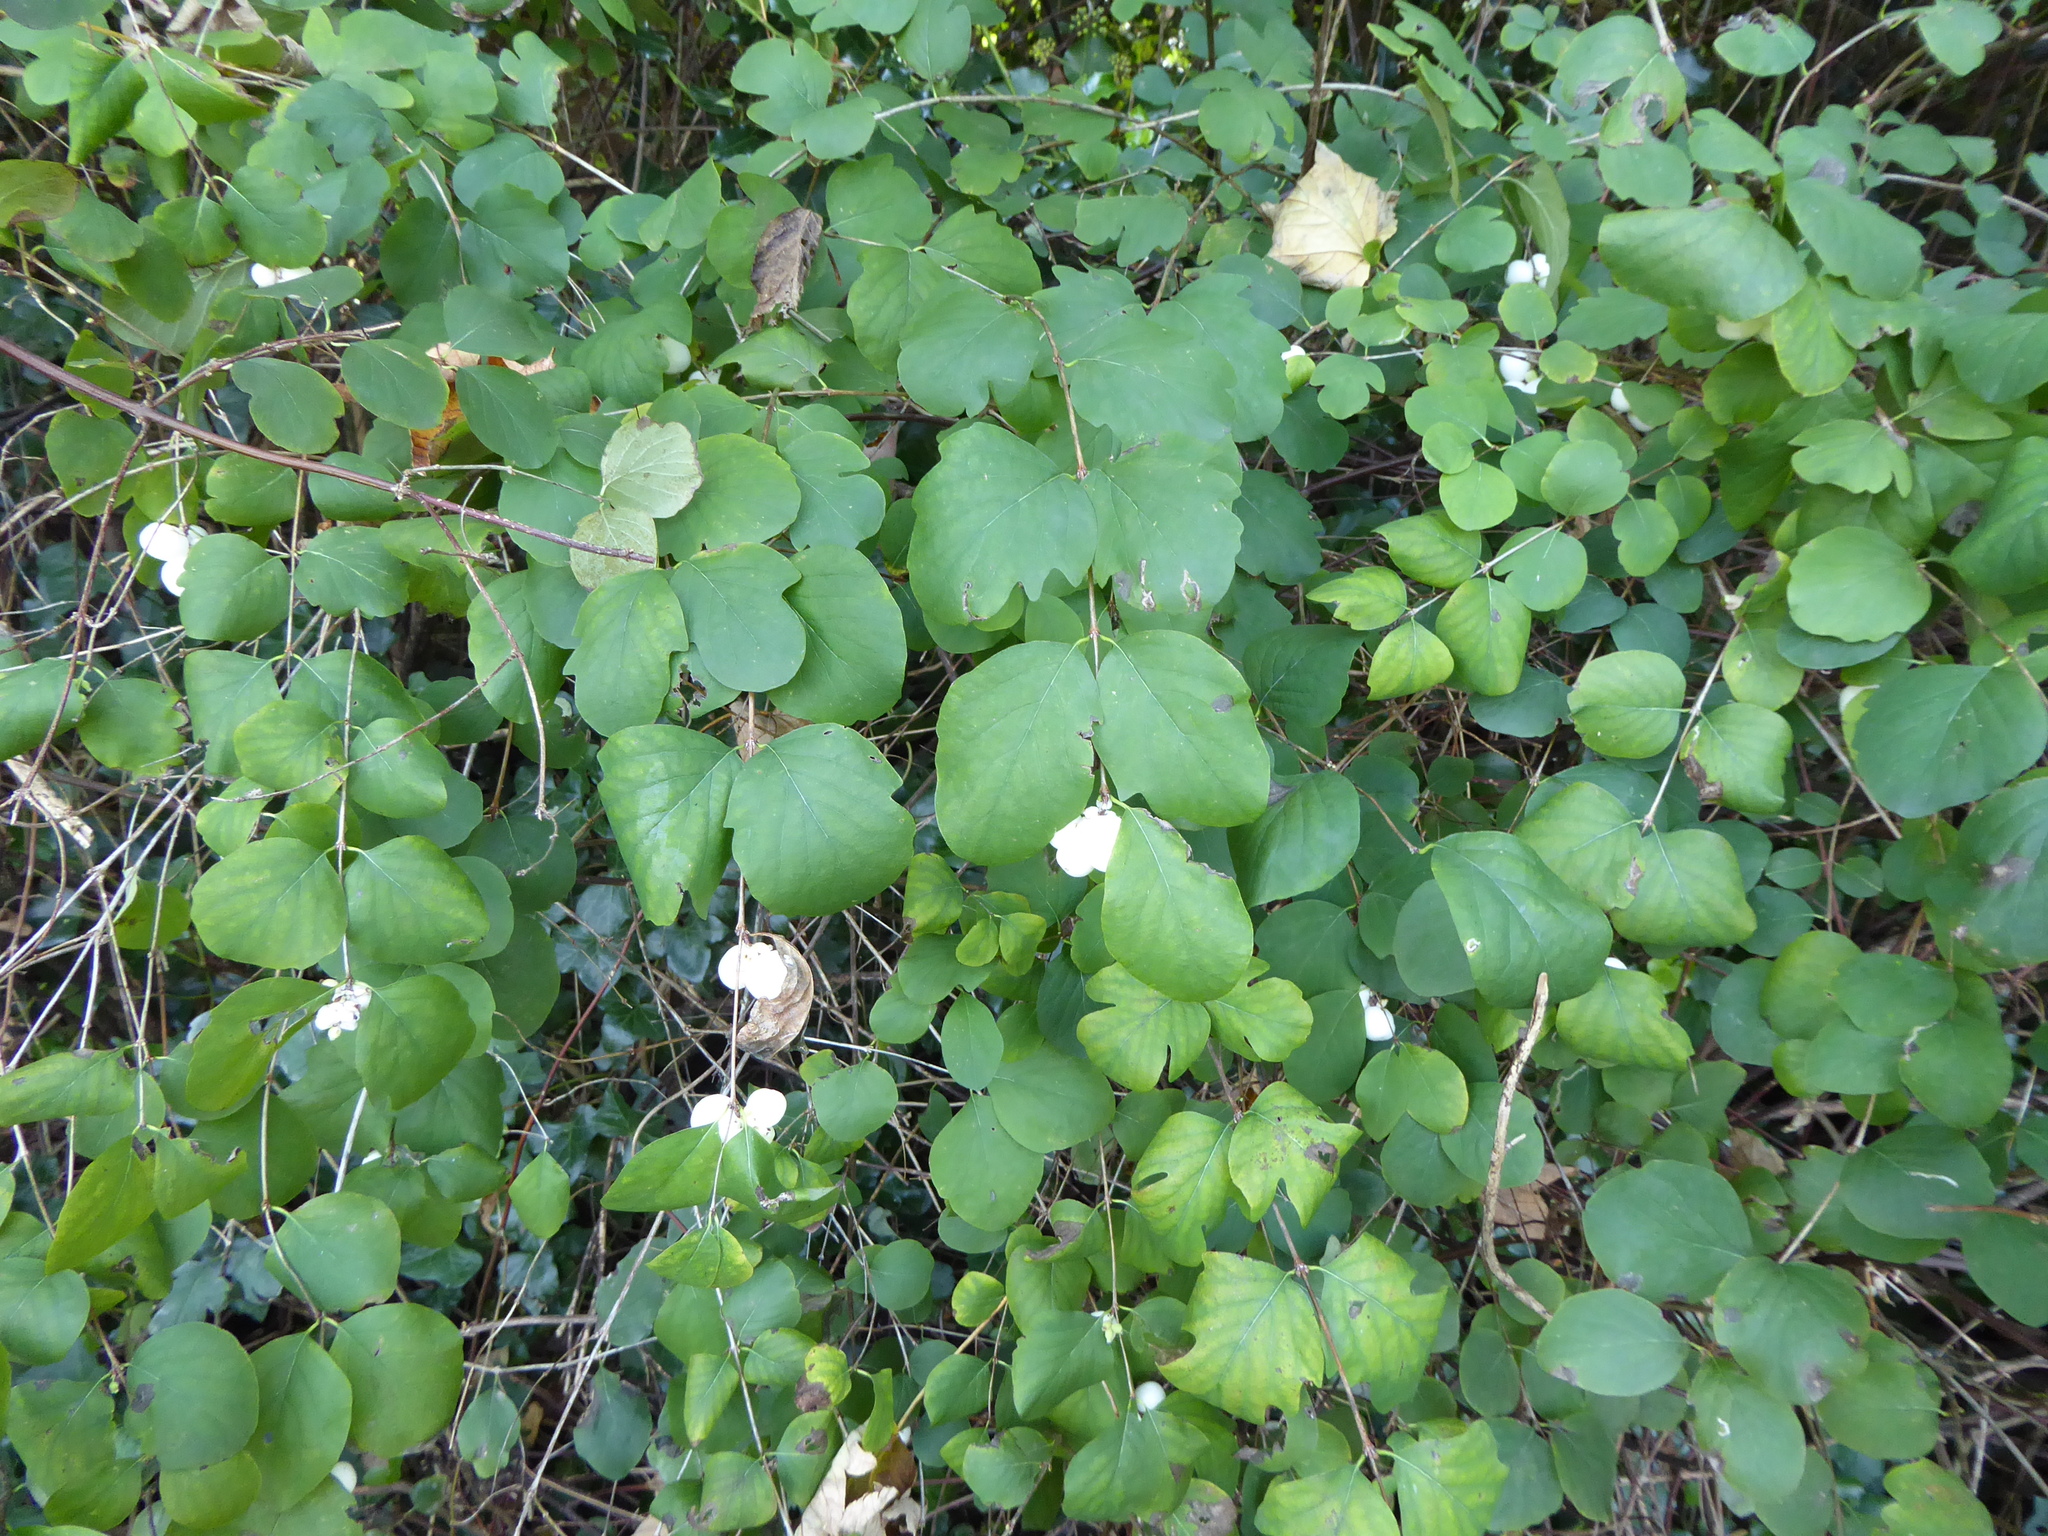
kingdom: Plantae
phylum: Tracheophyta
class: Magnoliopsida
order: Dipsacales
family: Caprifoliaceae
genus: Symphoricarpos
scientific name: Symphoricarpos albus
